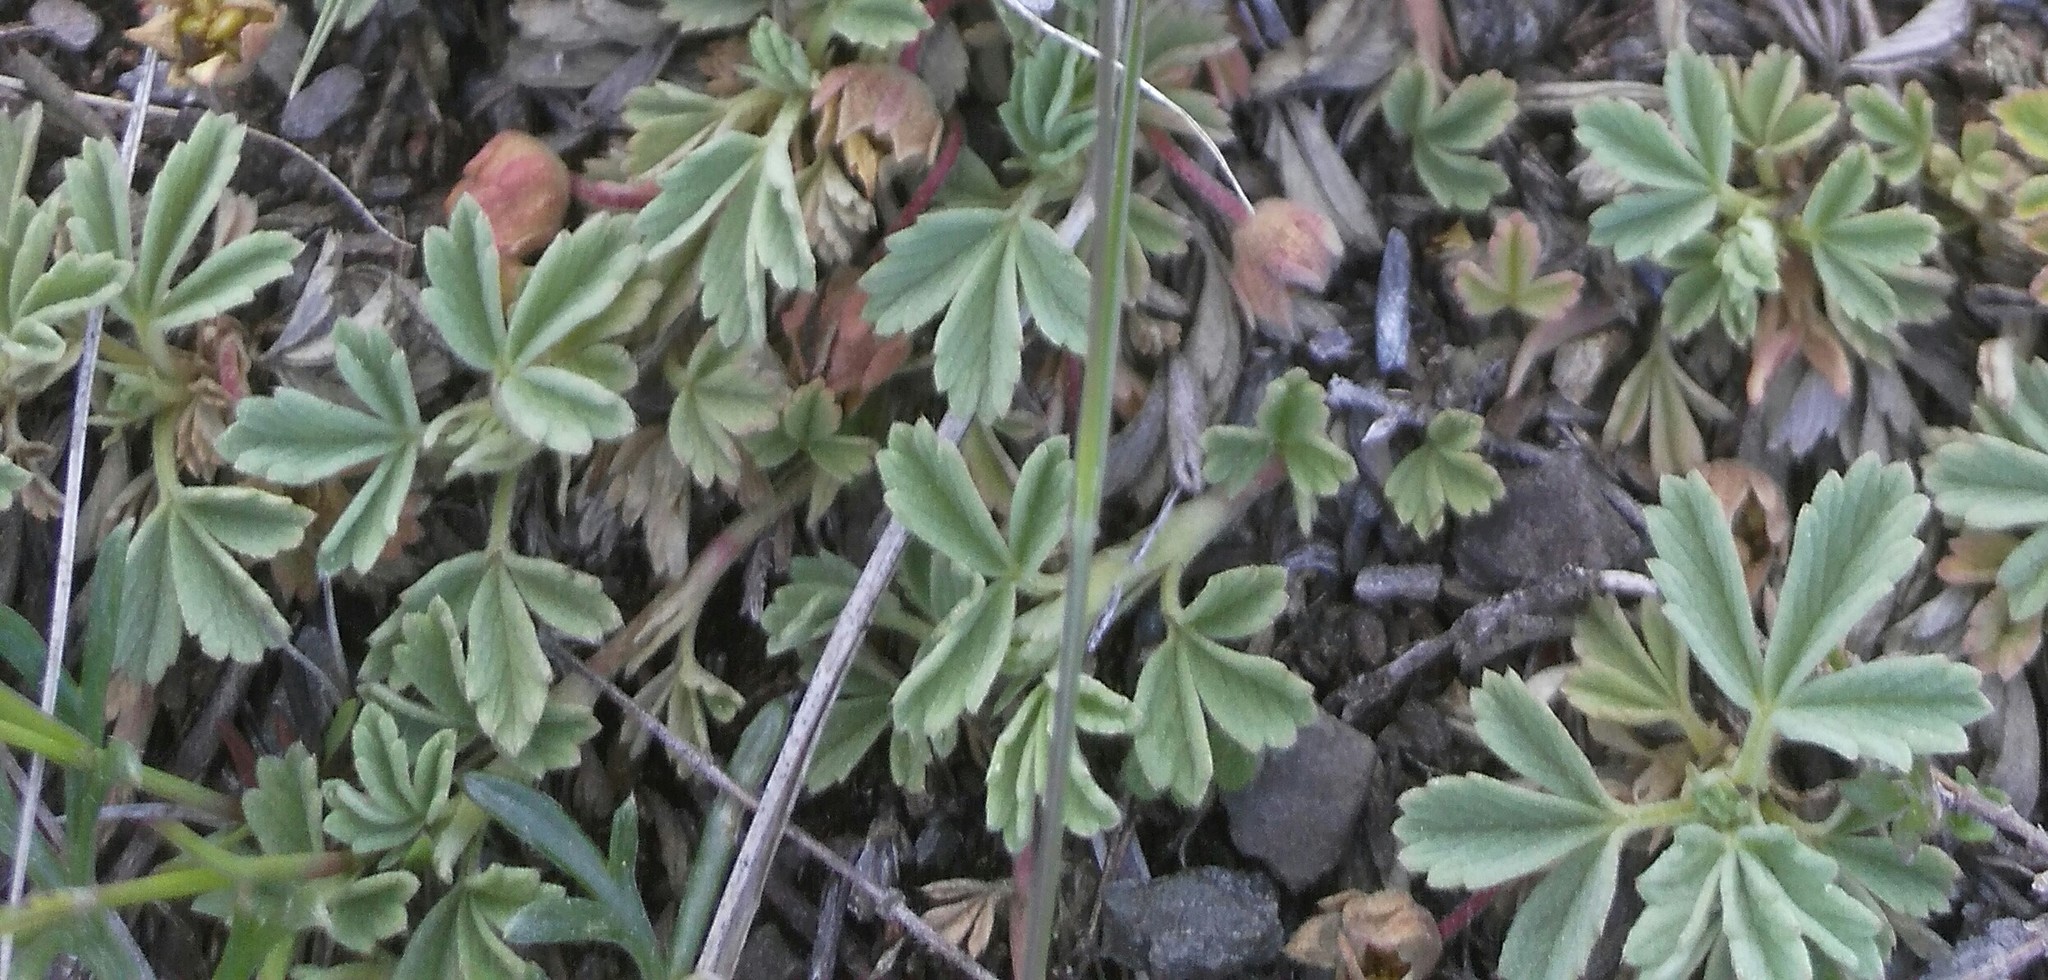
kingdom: Plantae
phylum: Tracheophyta
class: Magnoliopsida
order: Rosales
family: Rosaceae
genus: Potentilla
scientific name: Potentilla acaulis
